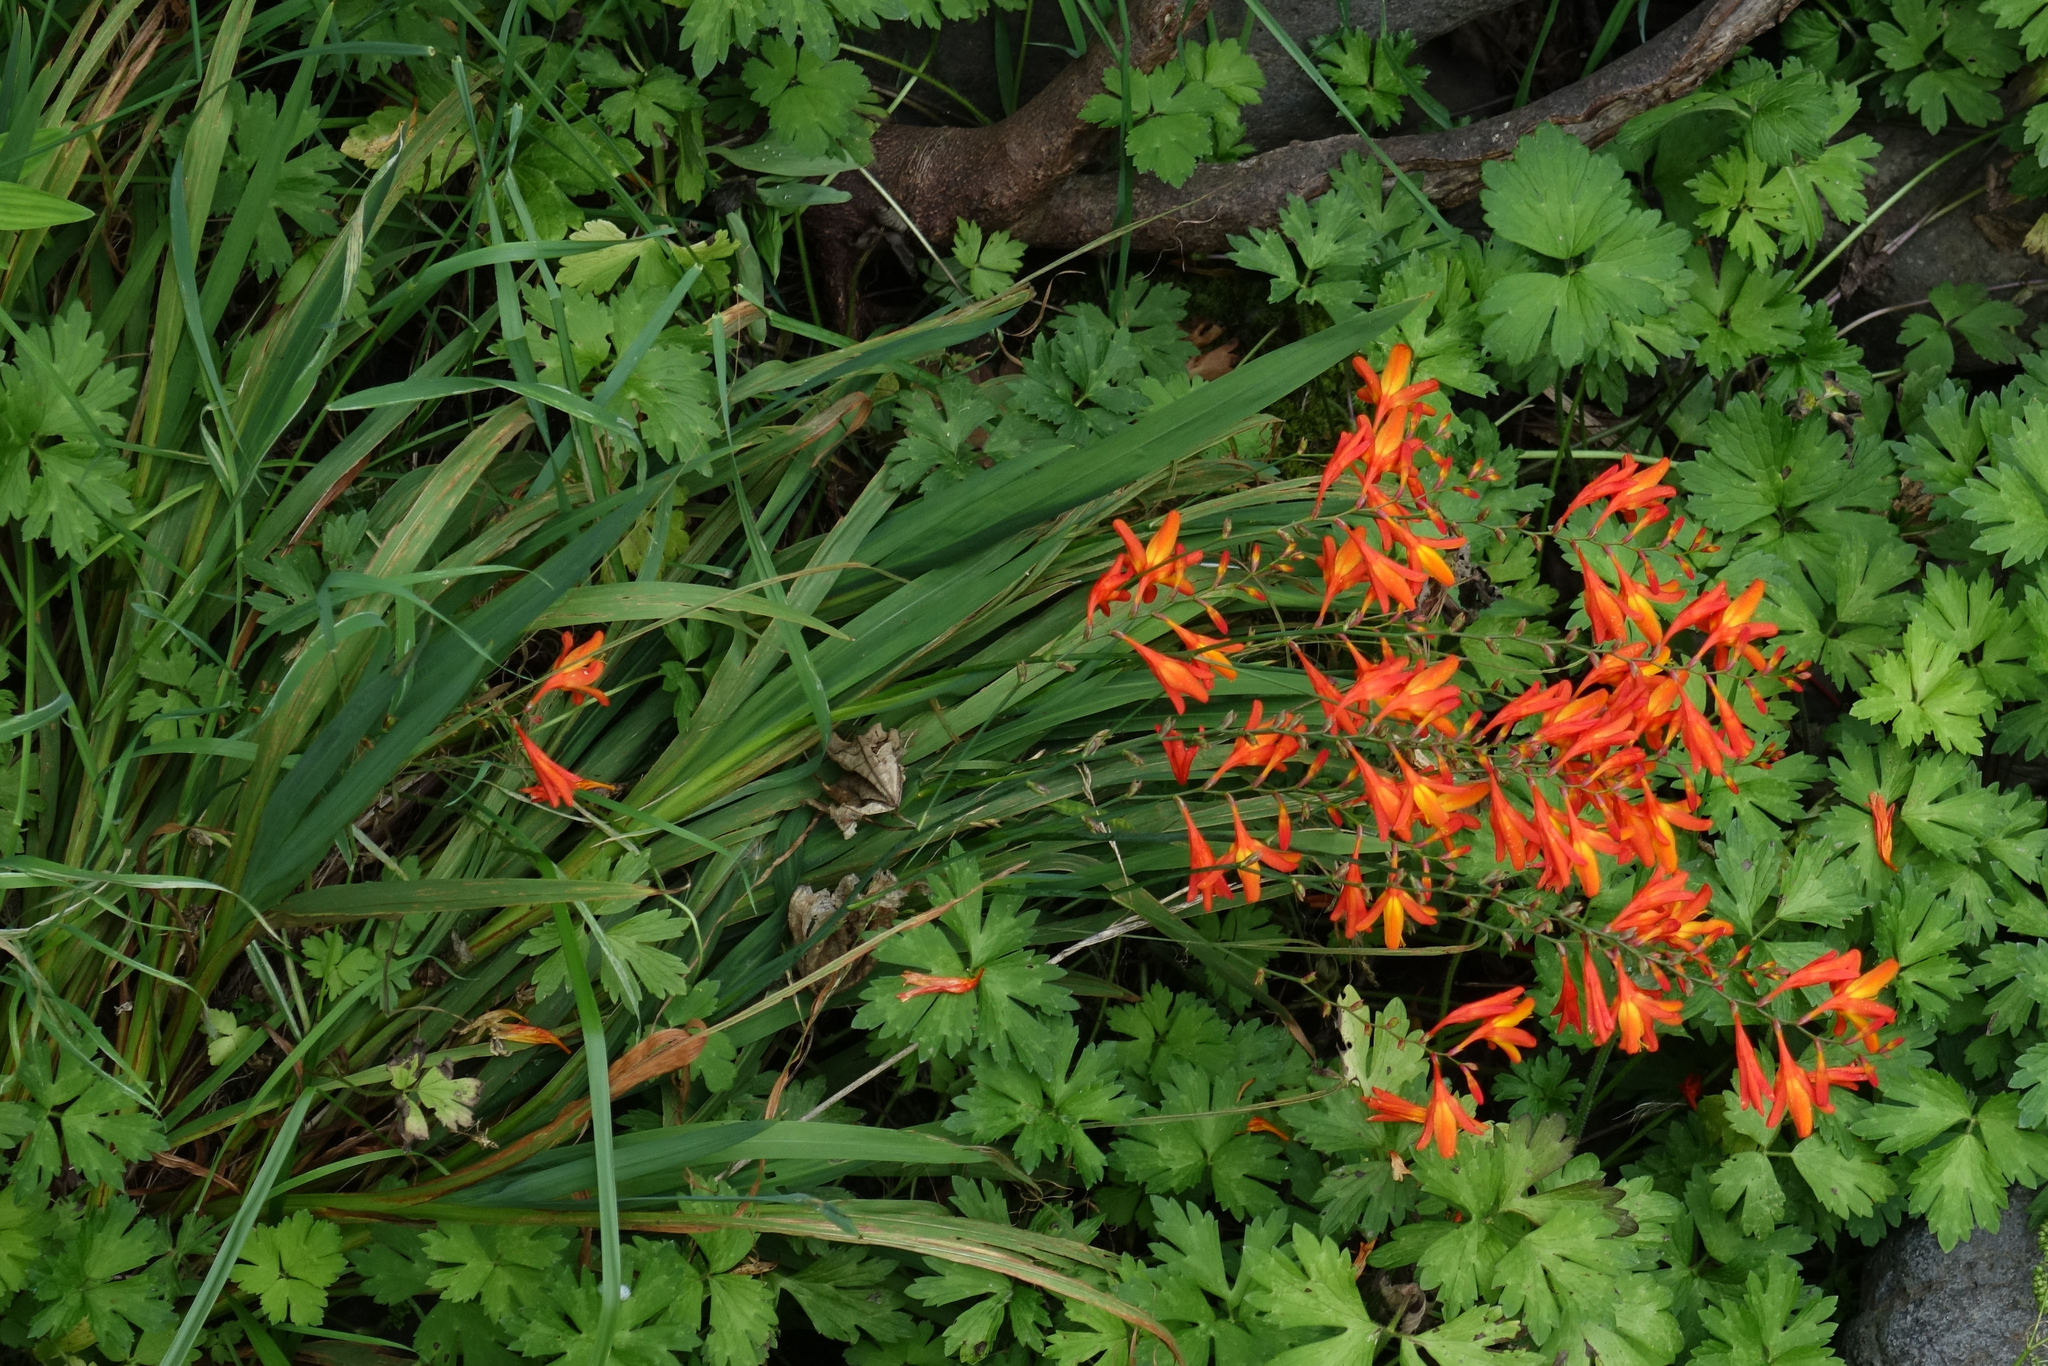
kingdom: Plantae
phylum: Tracheophyta
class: Liliopsida
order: Asparagales
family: Iridaceae
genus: Crocosmia
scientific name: Crocosmia crocosmiiflora
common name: Montbretia
